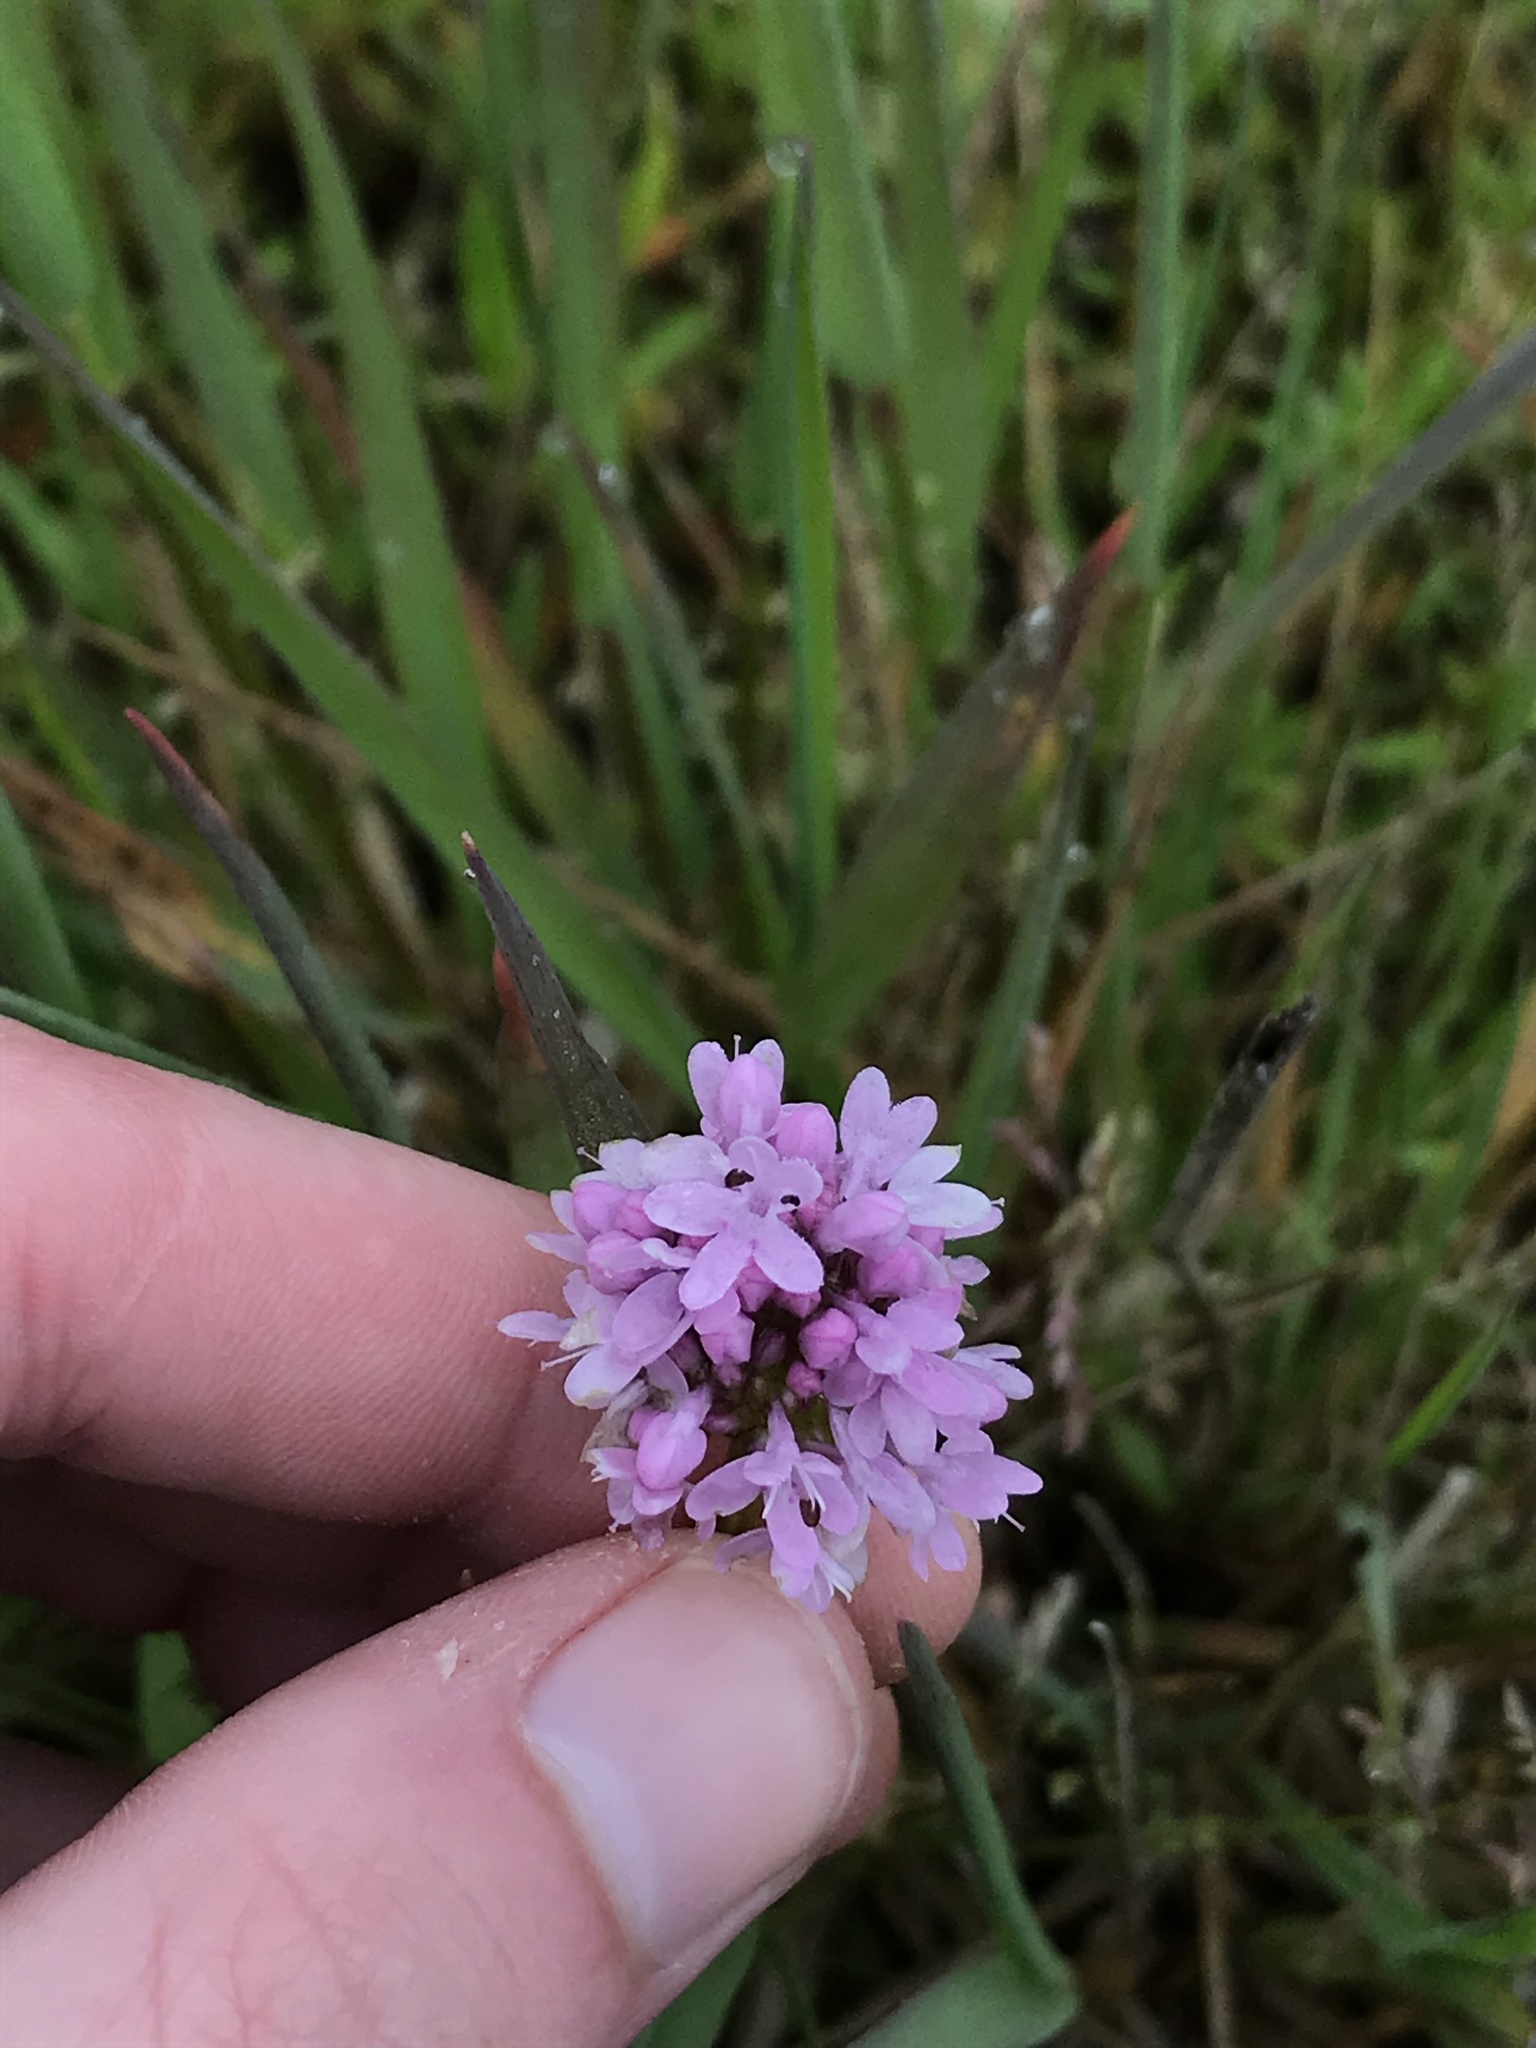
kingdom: Plantae
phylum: Tracheophyta
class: Magnoliopsida
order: Dipsacales
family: Caprifoliaceae
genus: Plectritis
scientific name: Plectritis congesta
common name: Pink plectritis
